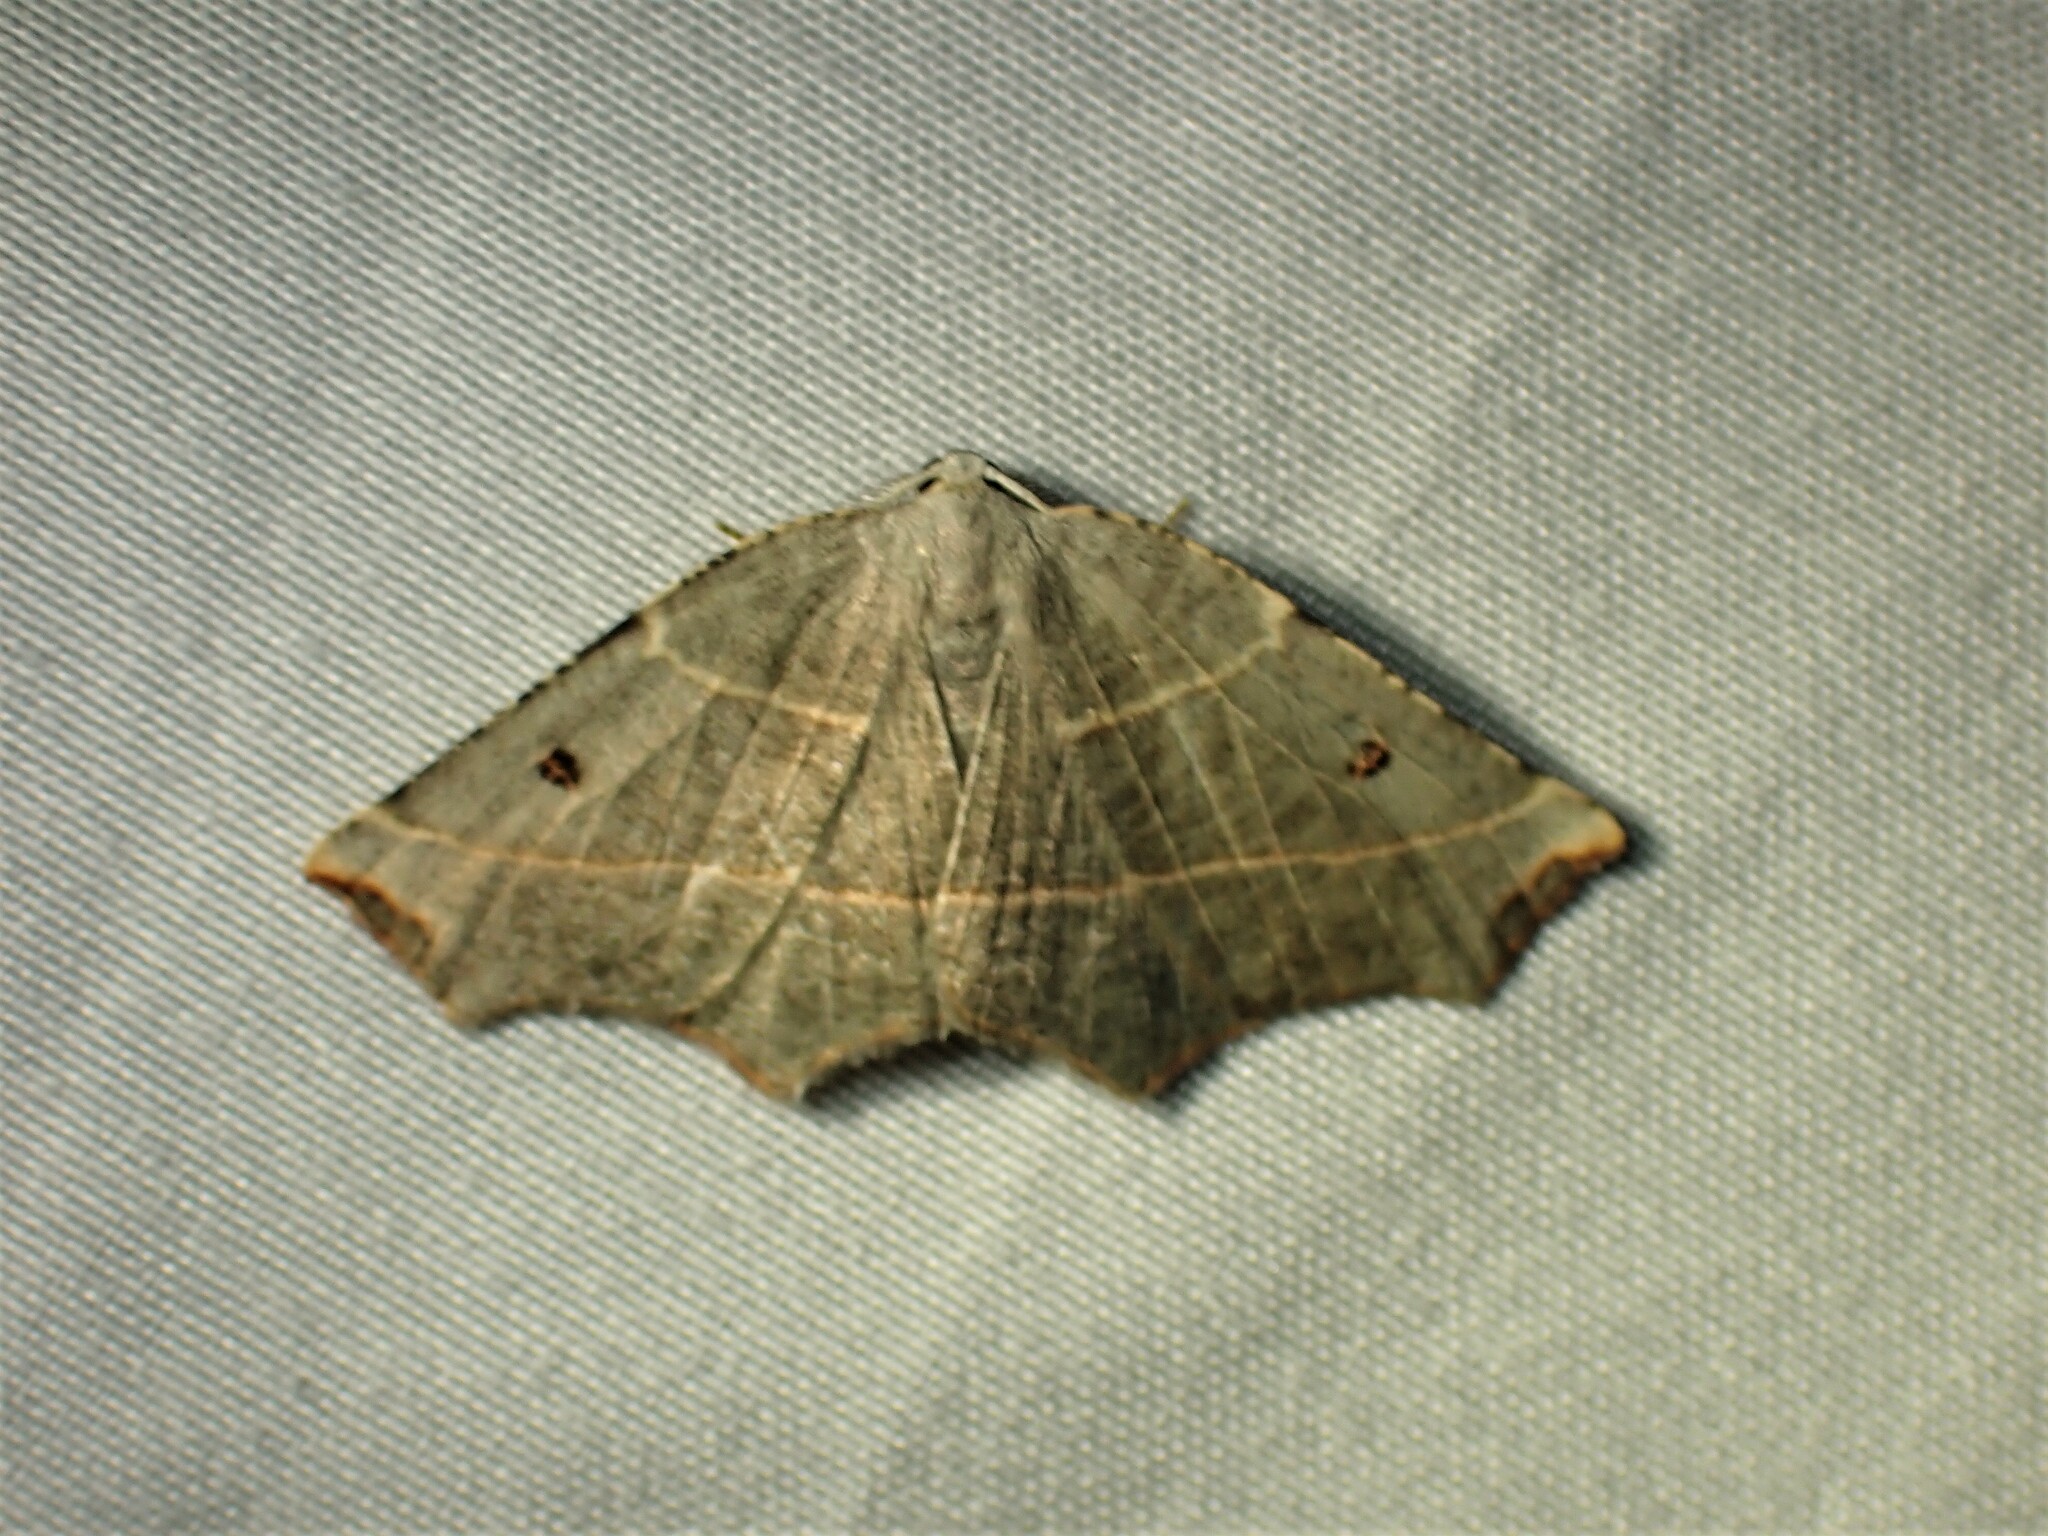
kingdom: Animalia
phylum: Arthropoda
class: Insecta
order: Lepidoptera
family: Geometridae
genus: Metanema
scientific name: Metanema inatomaria
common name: Pale metanema
